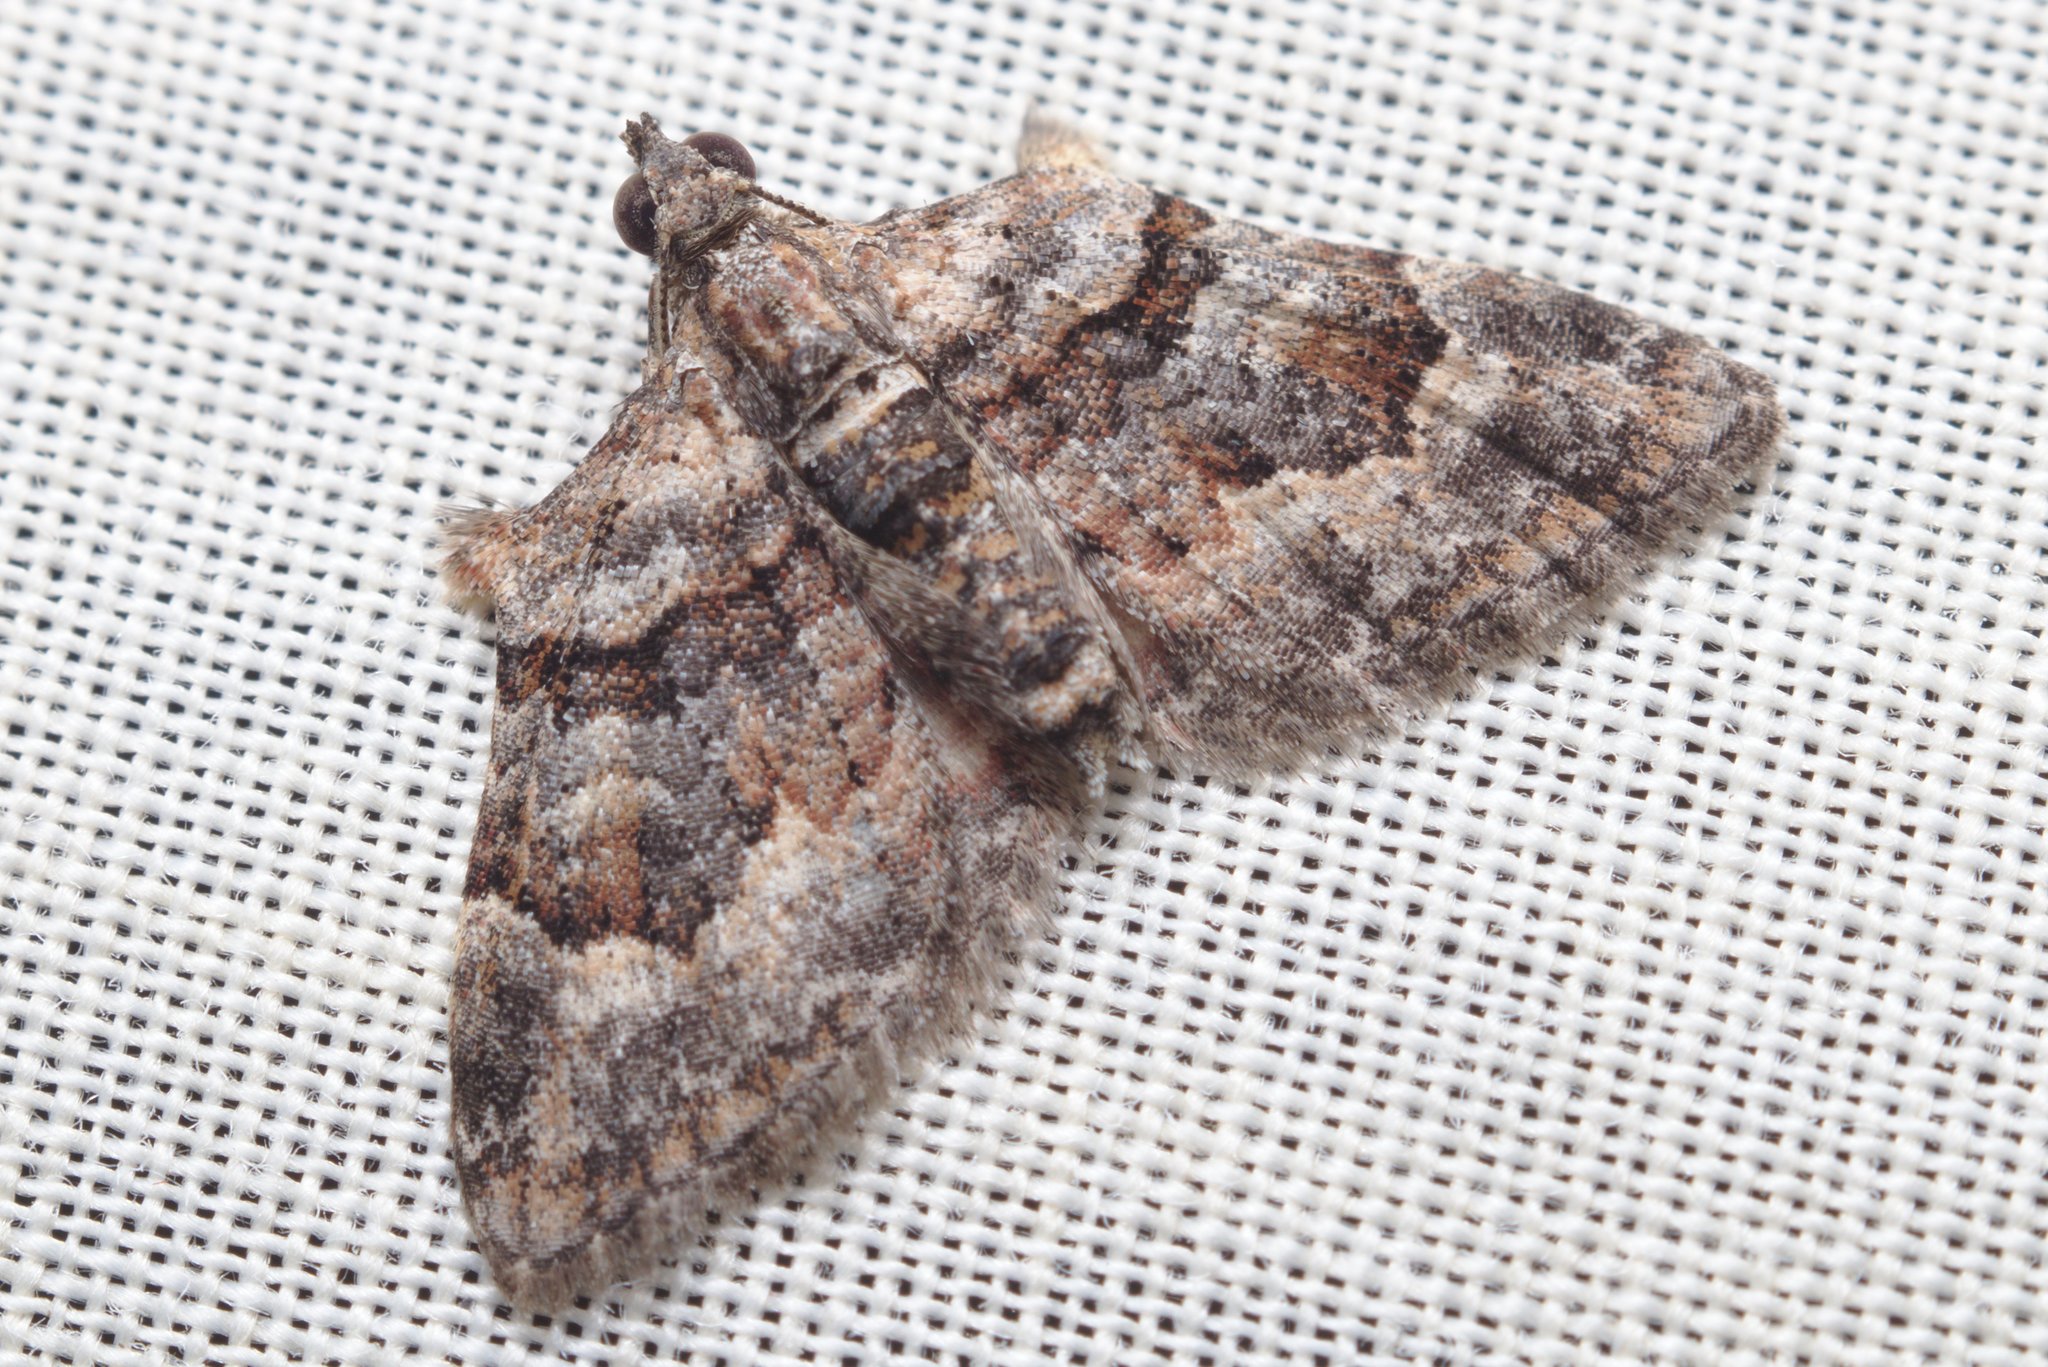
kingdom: Animalia
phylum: Arthropoda
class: Insecta
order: Lepidoptera
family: Geometridae
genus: Phrissogonus
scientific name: Phrissogonus laticostata
